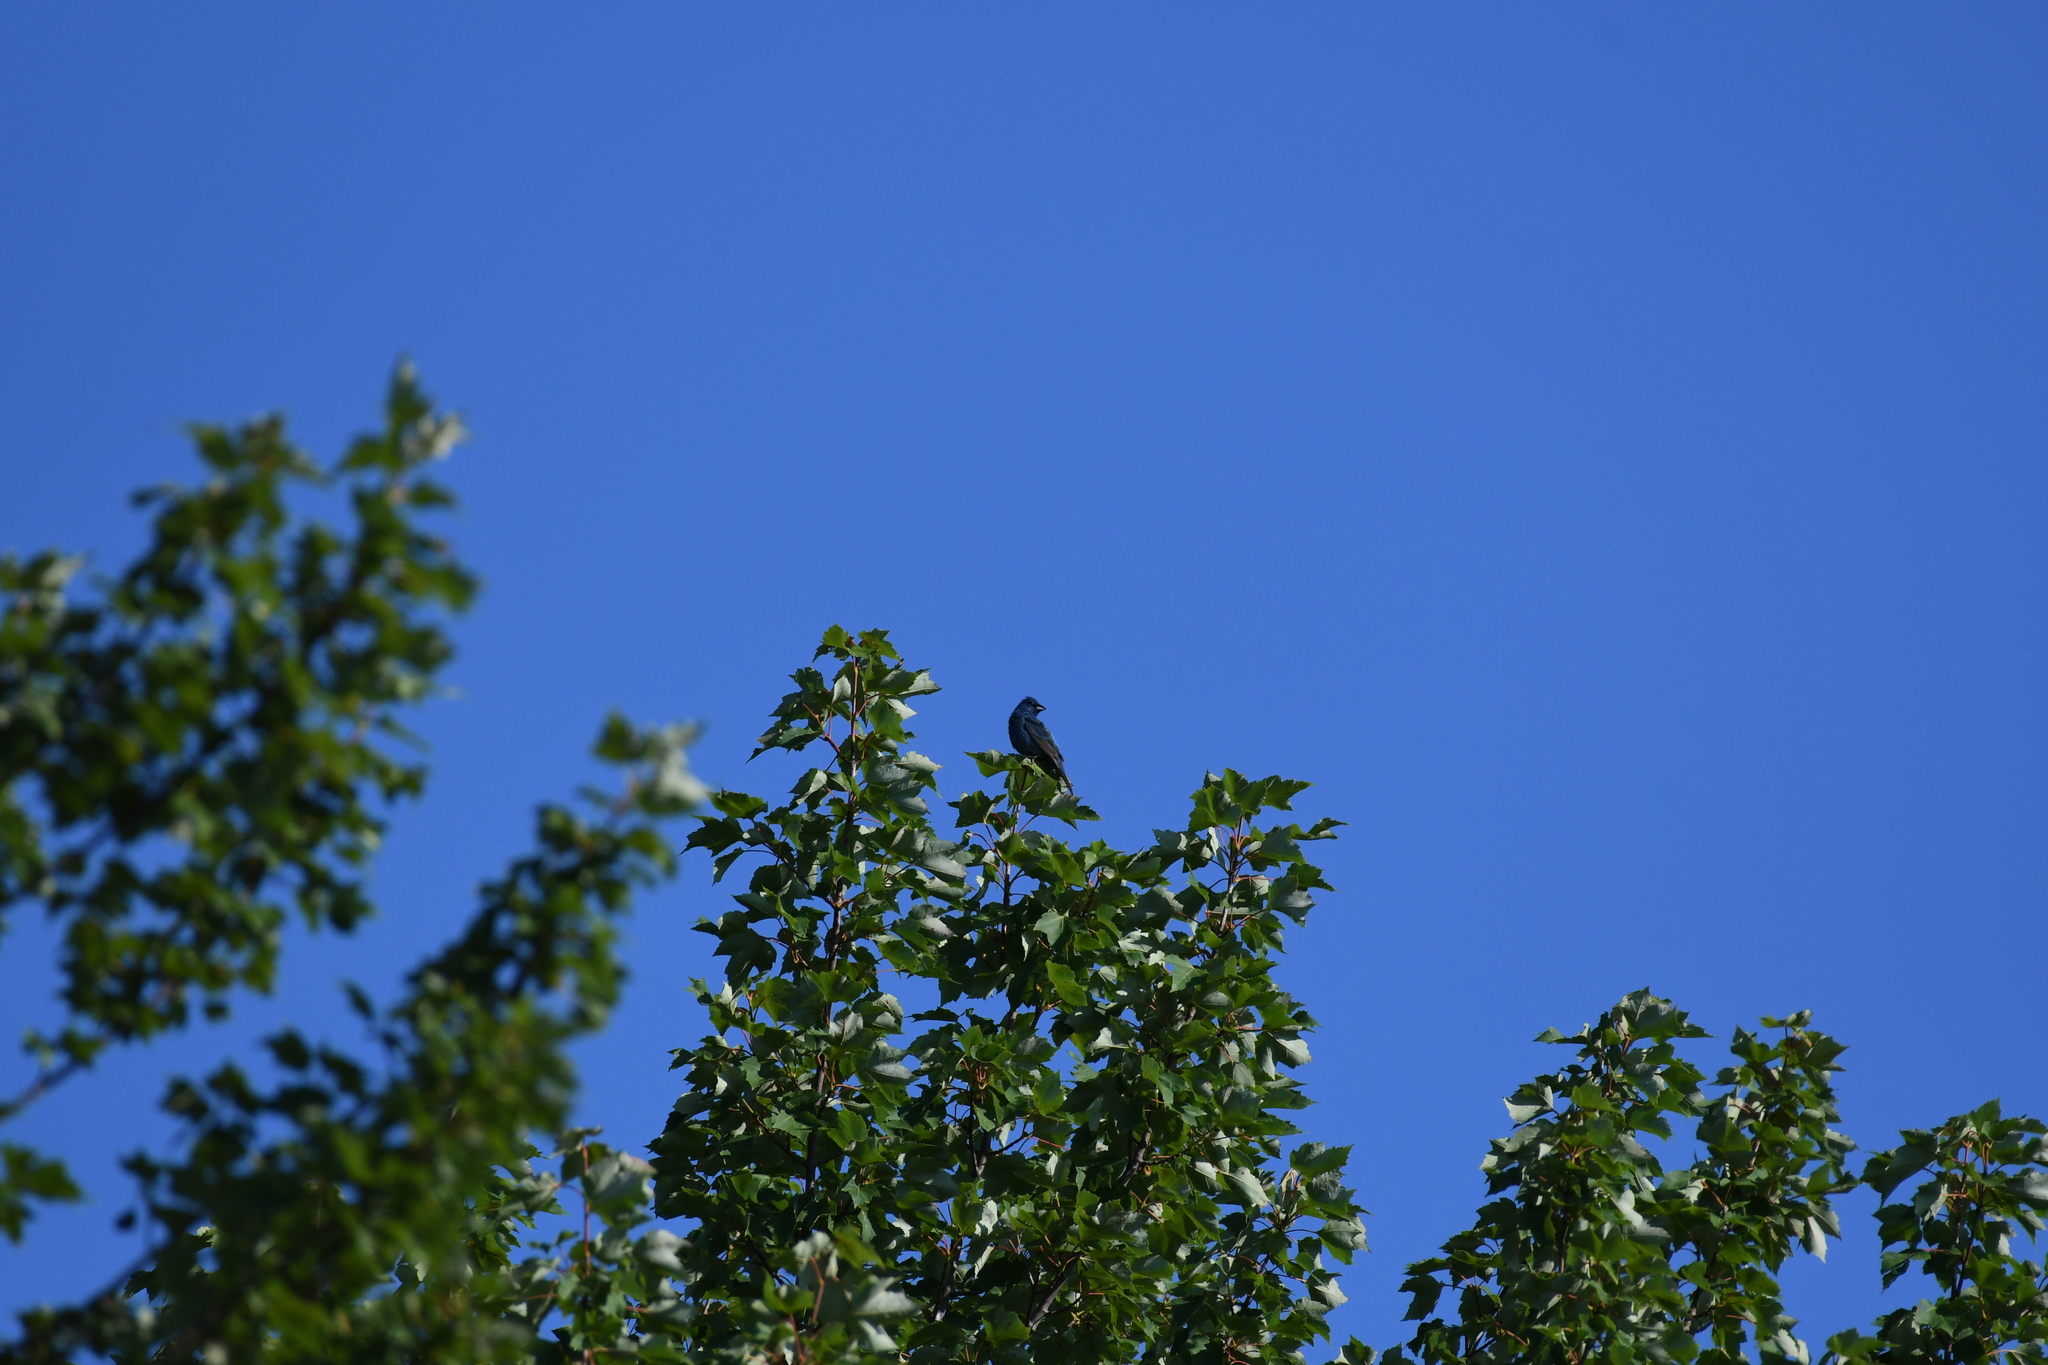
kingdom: Animalia
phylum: Chordata
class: Aves
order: Passeriformes
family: Cardinalidae
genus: Passerina
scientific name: Passerina cyanea
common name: Indigo bunting
